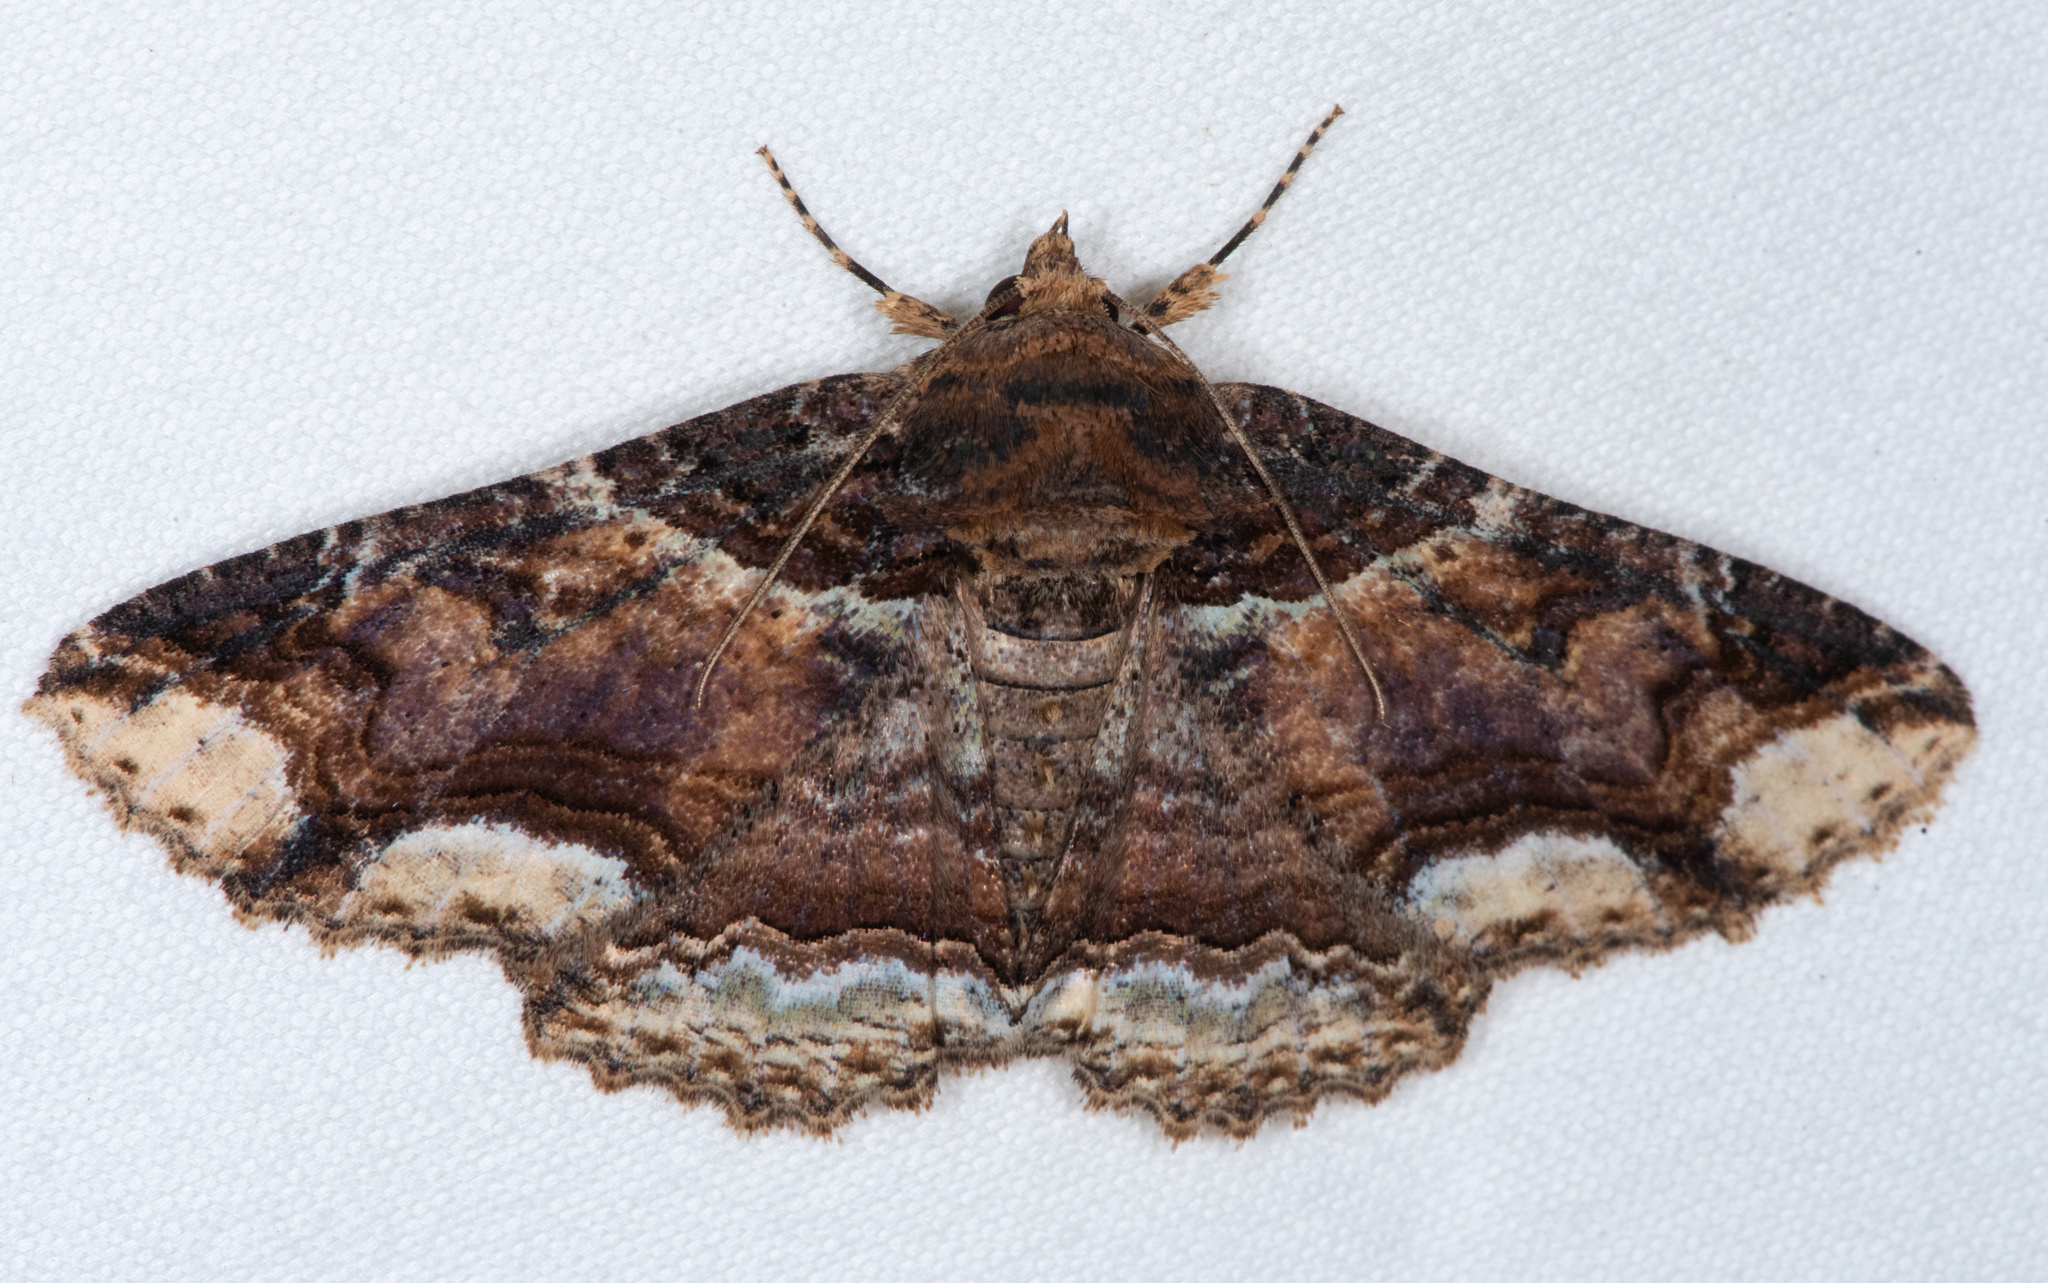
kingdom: Animalia
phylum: Arthropoda
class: Insecta
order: Lepidoptera
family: Erebidae
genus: Zale
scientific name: Zale minerea
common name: Colorful zale moth
